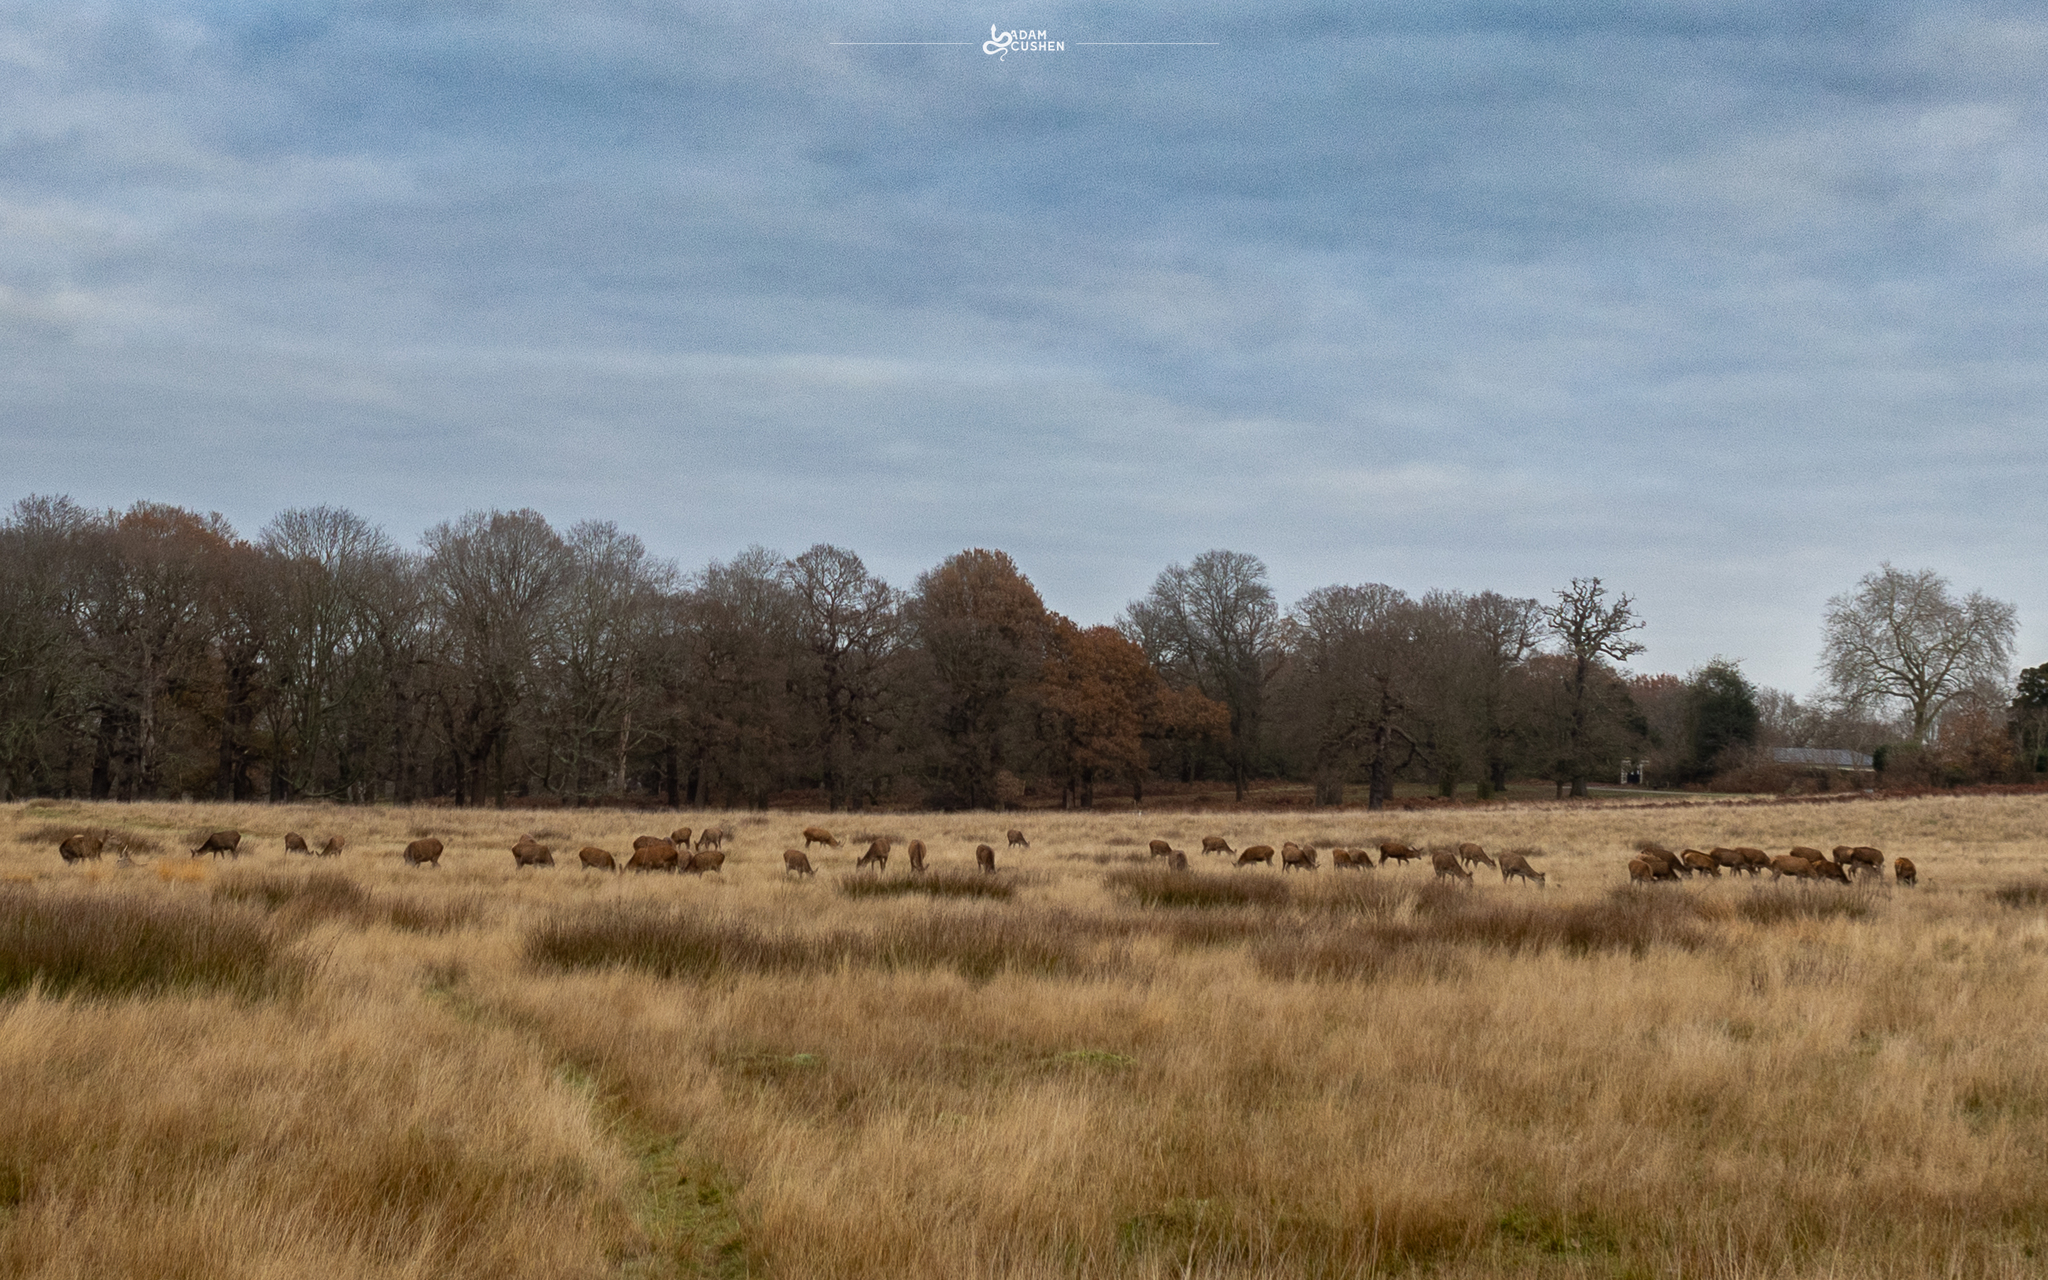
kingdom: Animalia
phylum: Chordata
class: Mammalia
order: Artiodactyla
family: Cervidae
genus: Cervus
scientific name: Cervus elaphus
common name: Red deer
